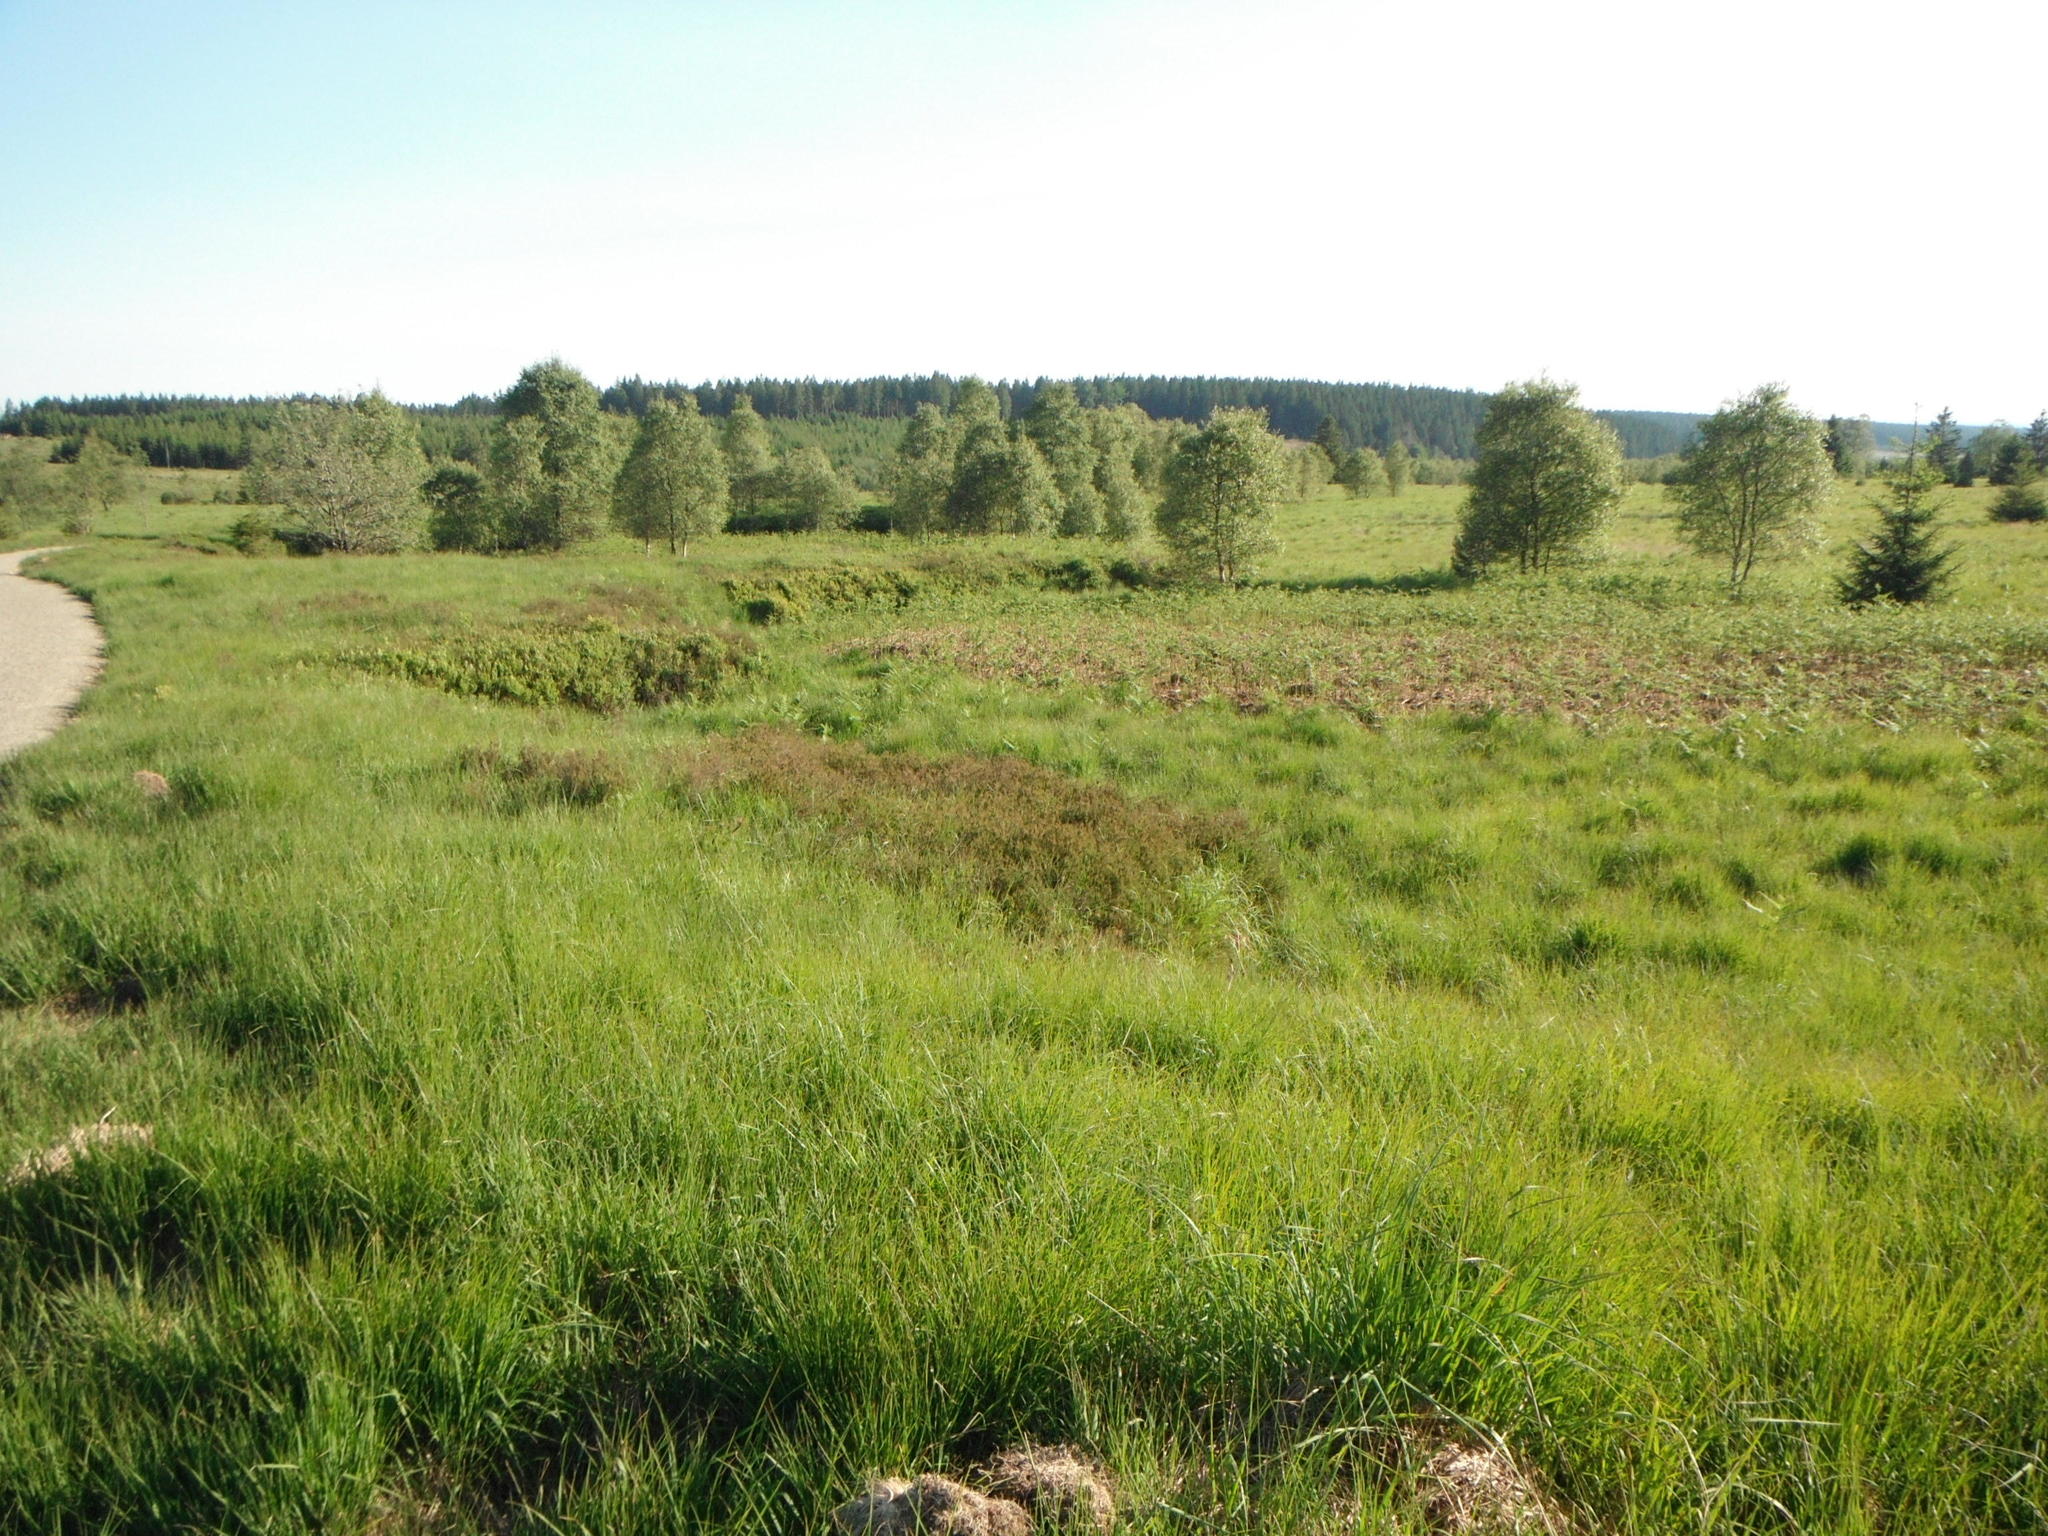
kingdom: Plantae
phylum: Tracheophyta
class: Polypodiopsida
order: Polypodiales
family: Dennstaedtiaceae
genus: Pteridium
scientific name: Pteridium aquilinum
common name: Bracken
